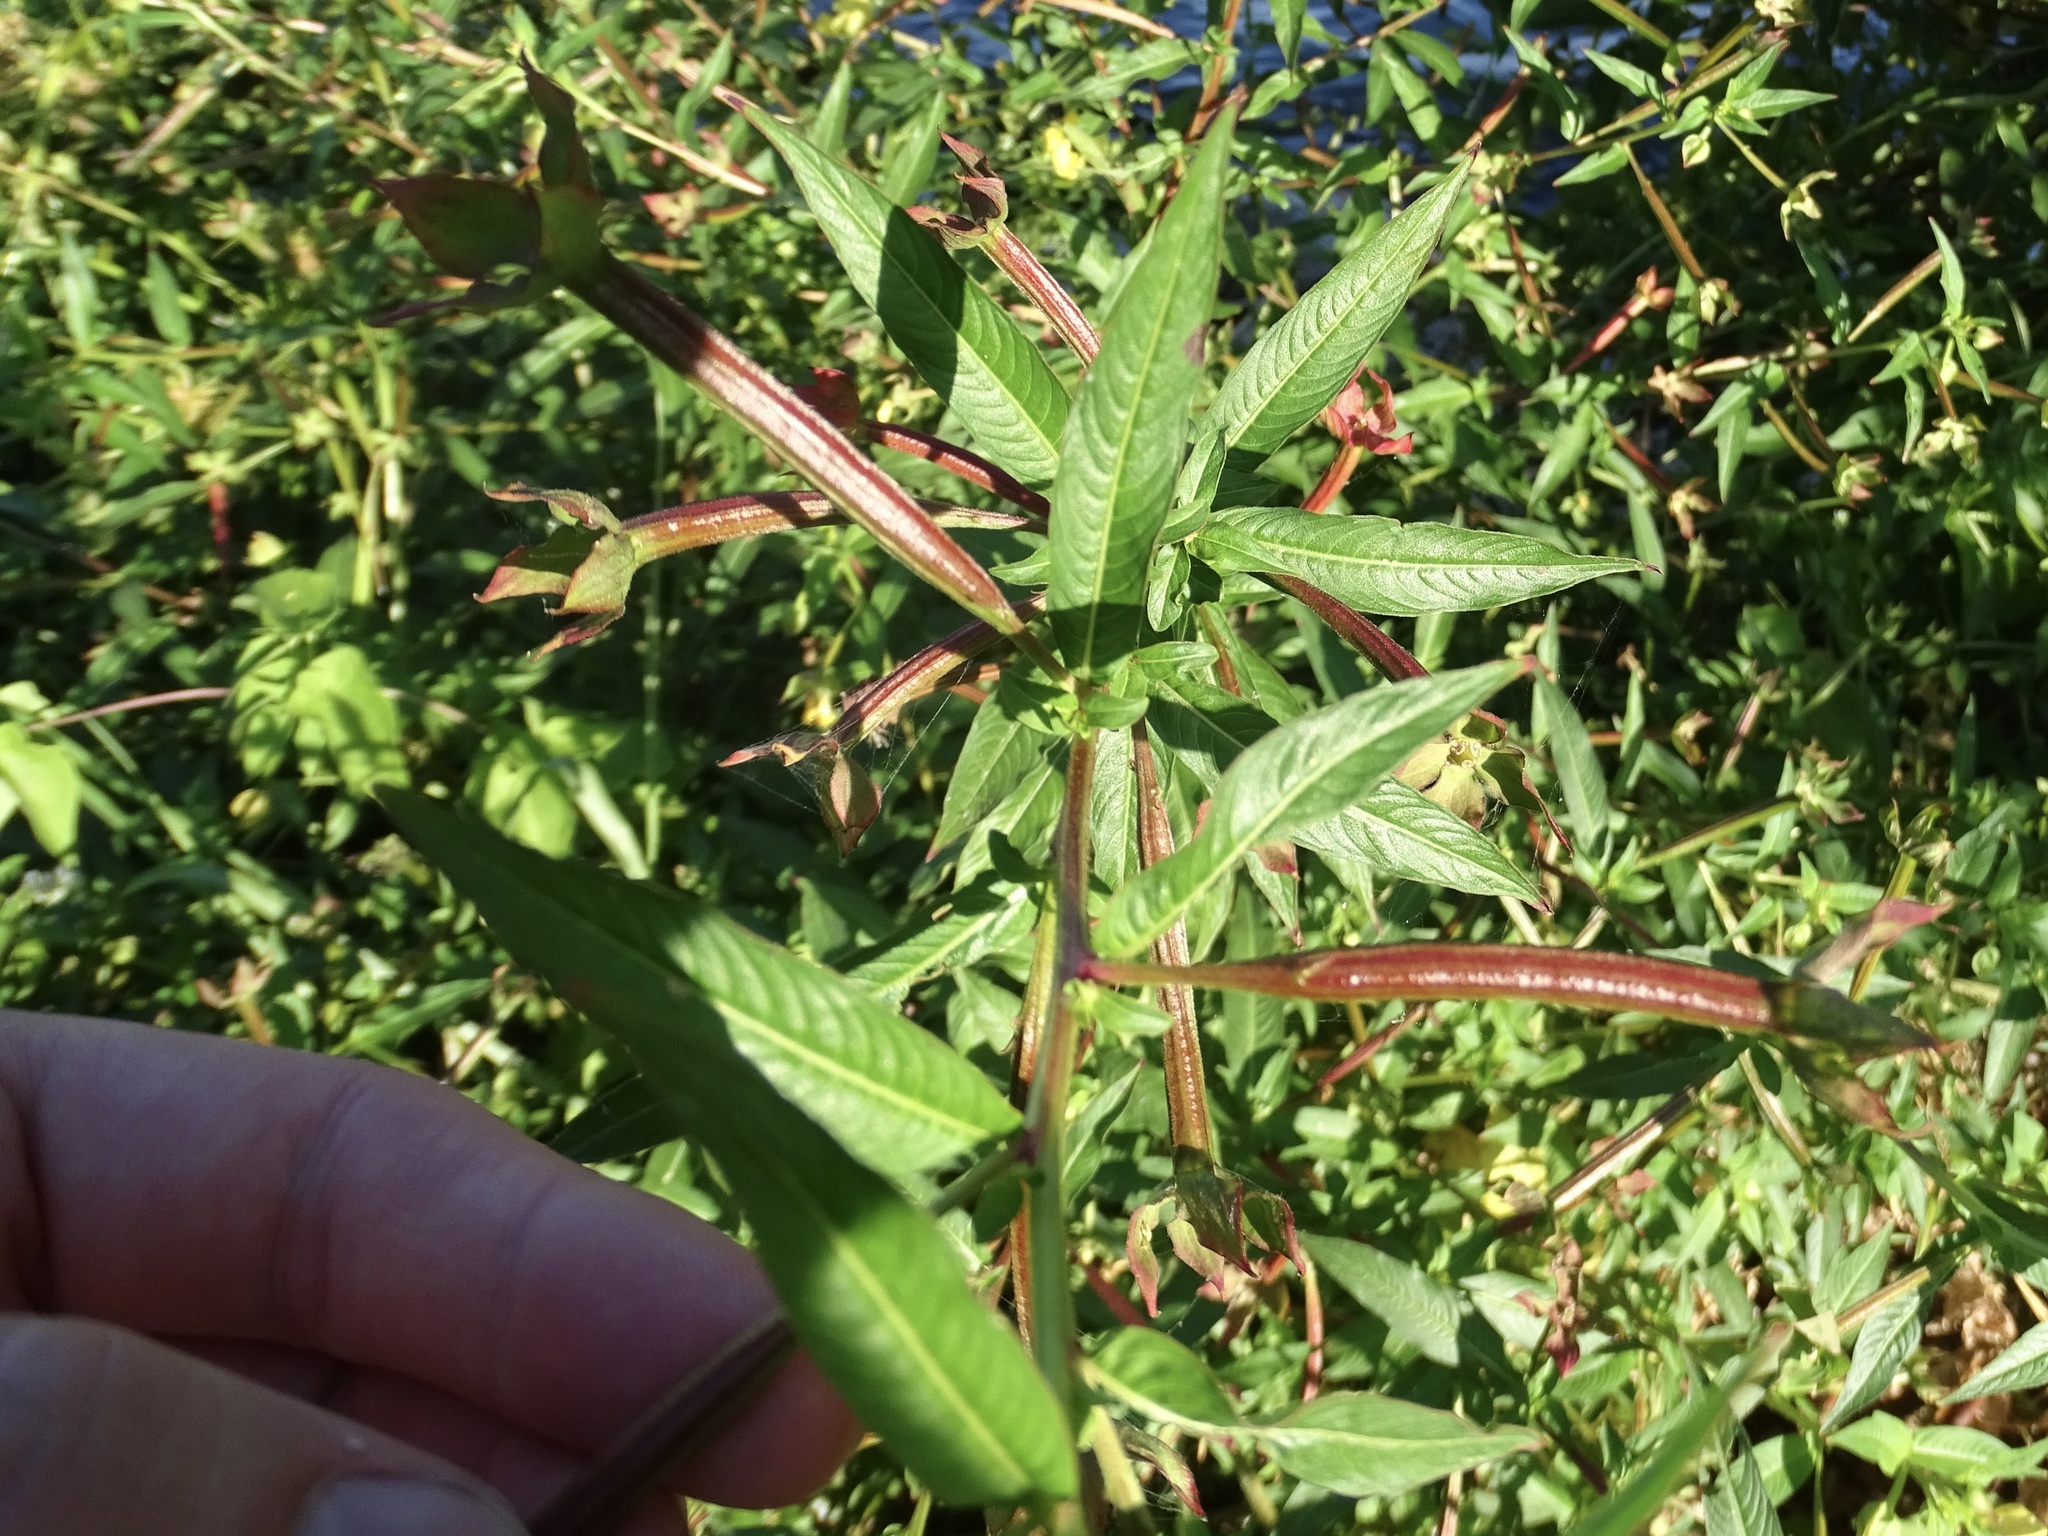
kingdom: Plantae
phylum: Tracheophyta
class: Magnoliopsida
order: Myrtales
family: Onagraceae
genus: Ludwigia
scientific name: Ludwigia octovalvis
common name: Water-primrose
